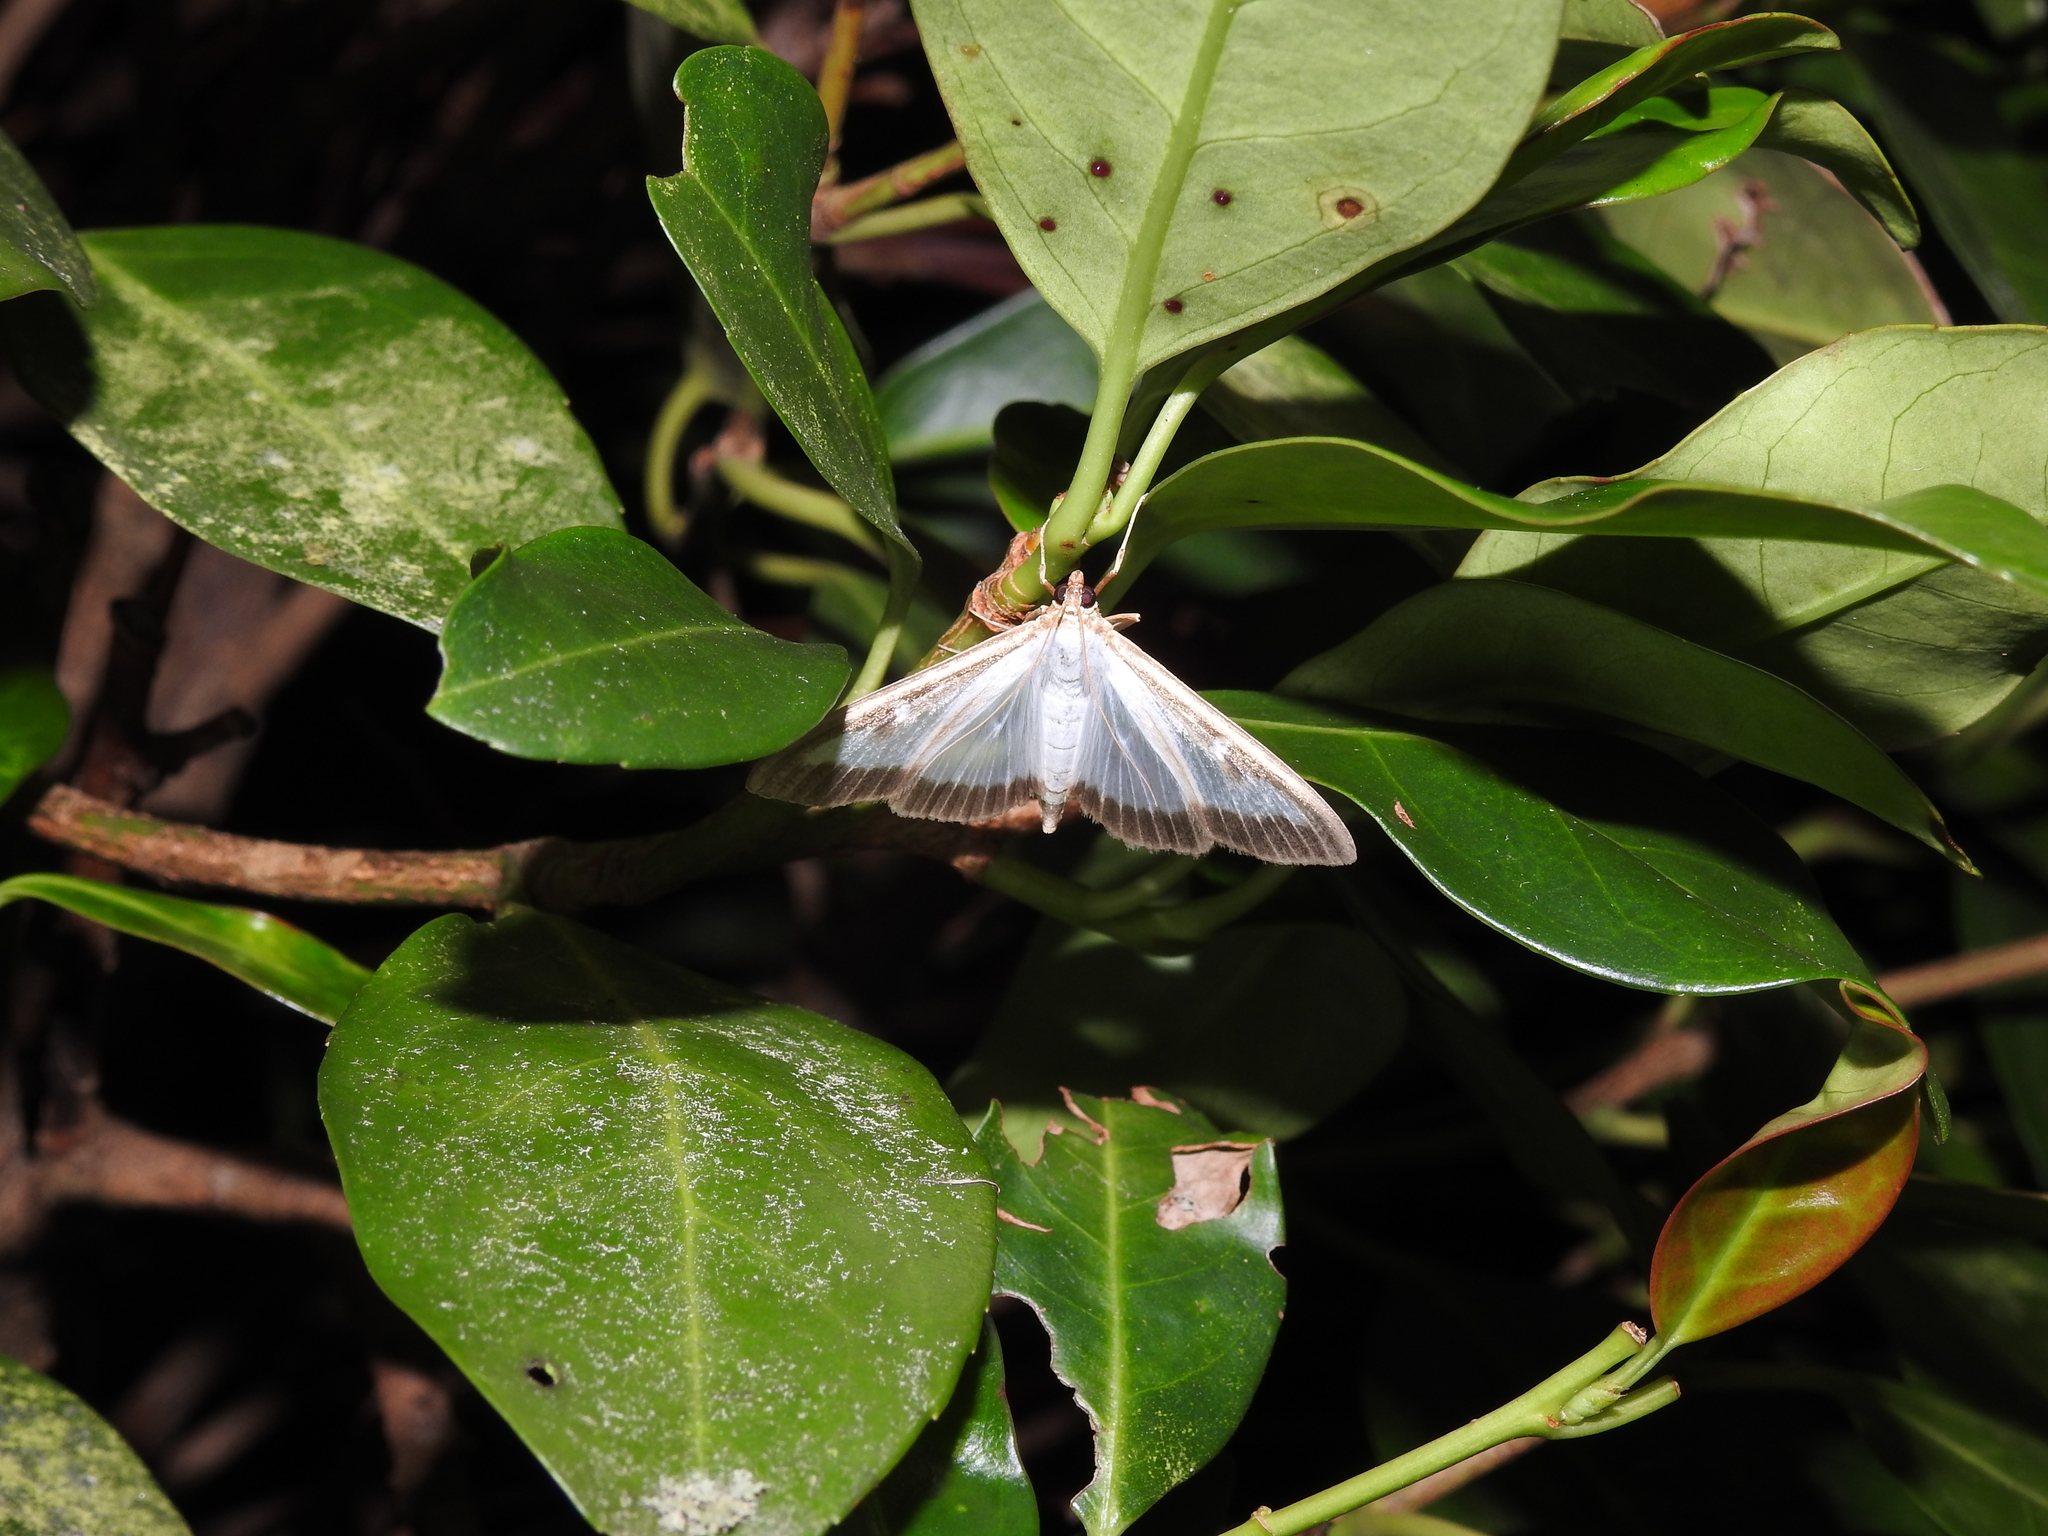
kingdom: Animalia
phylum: Arthropoda
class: Insecta
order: Lepidoptera
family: Crambidae
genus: Cydalima
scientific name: Cydalima perspectalis
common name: Box tree moth
